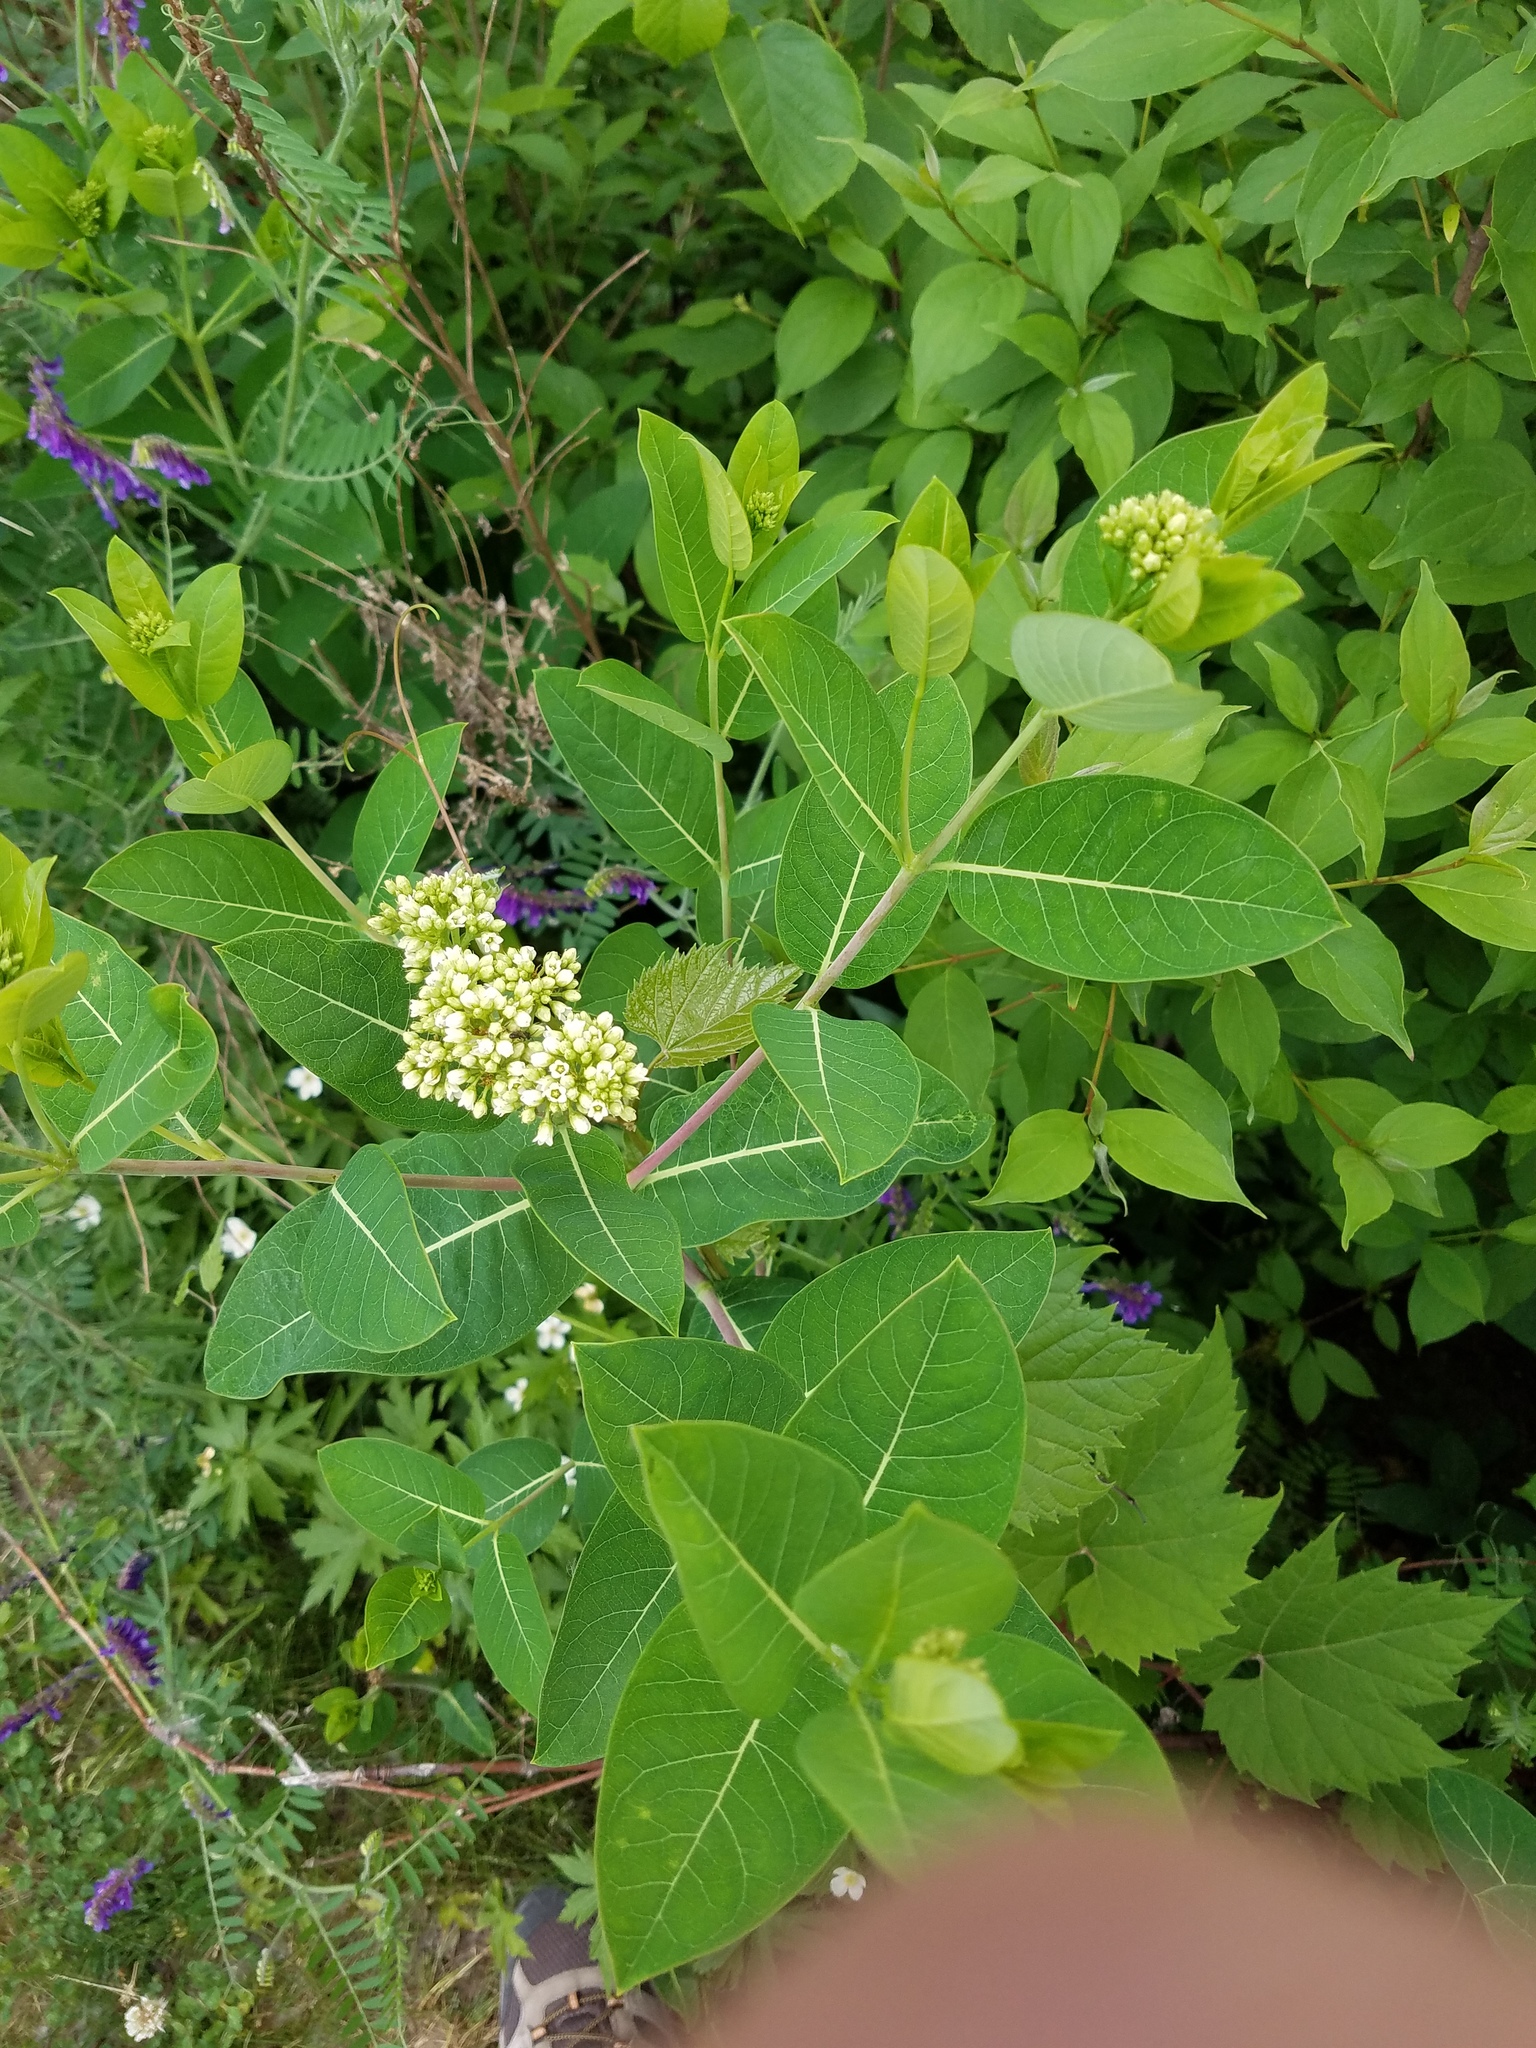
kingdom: Plantae
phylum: Tracheophyta
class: Magnoliopsida
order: Gentianales
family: Apocynaceae
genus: Apocynum
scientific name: Apocynum cannabinum
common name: Hemp dogbane
